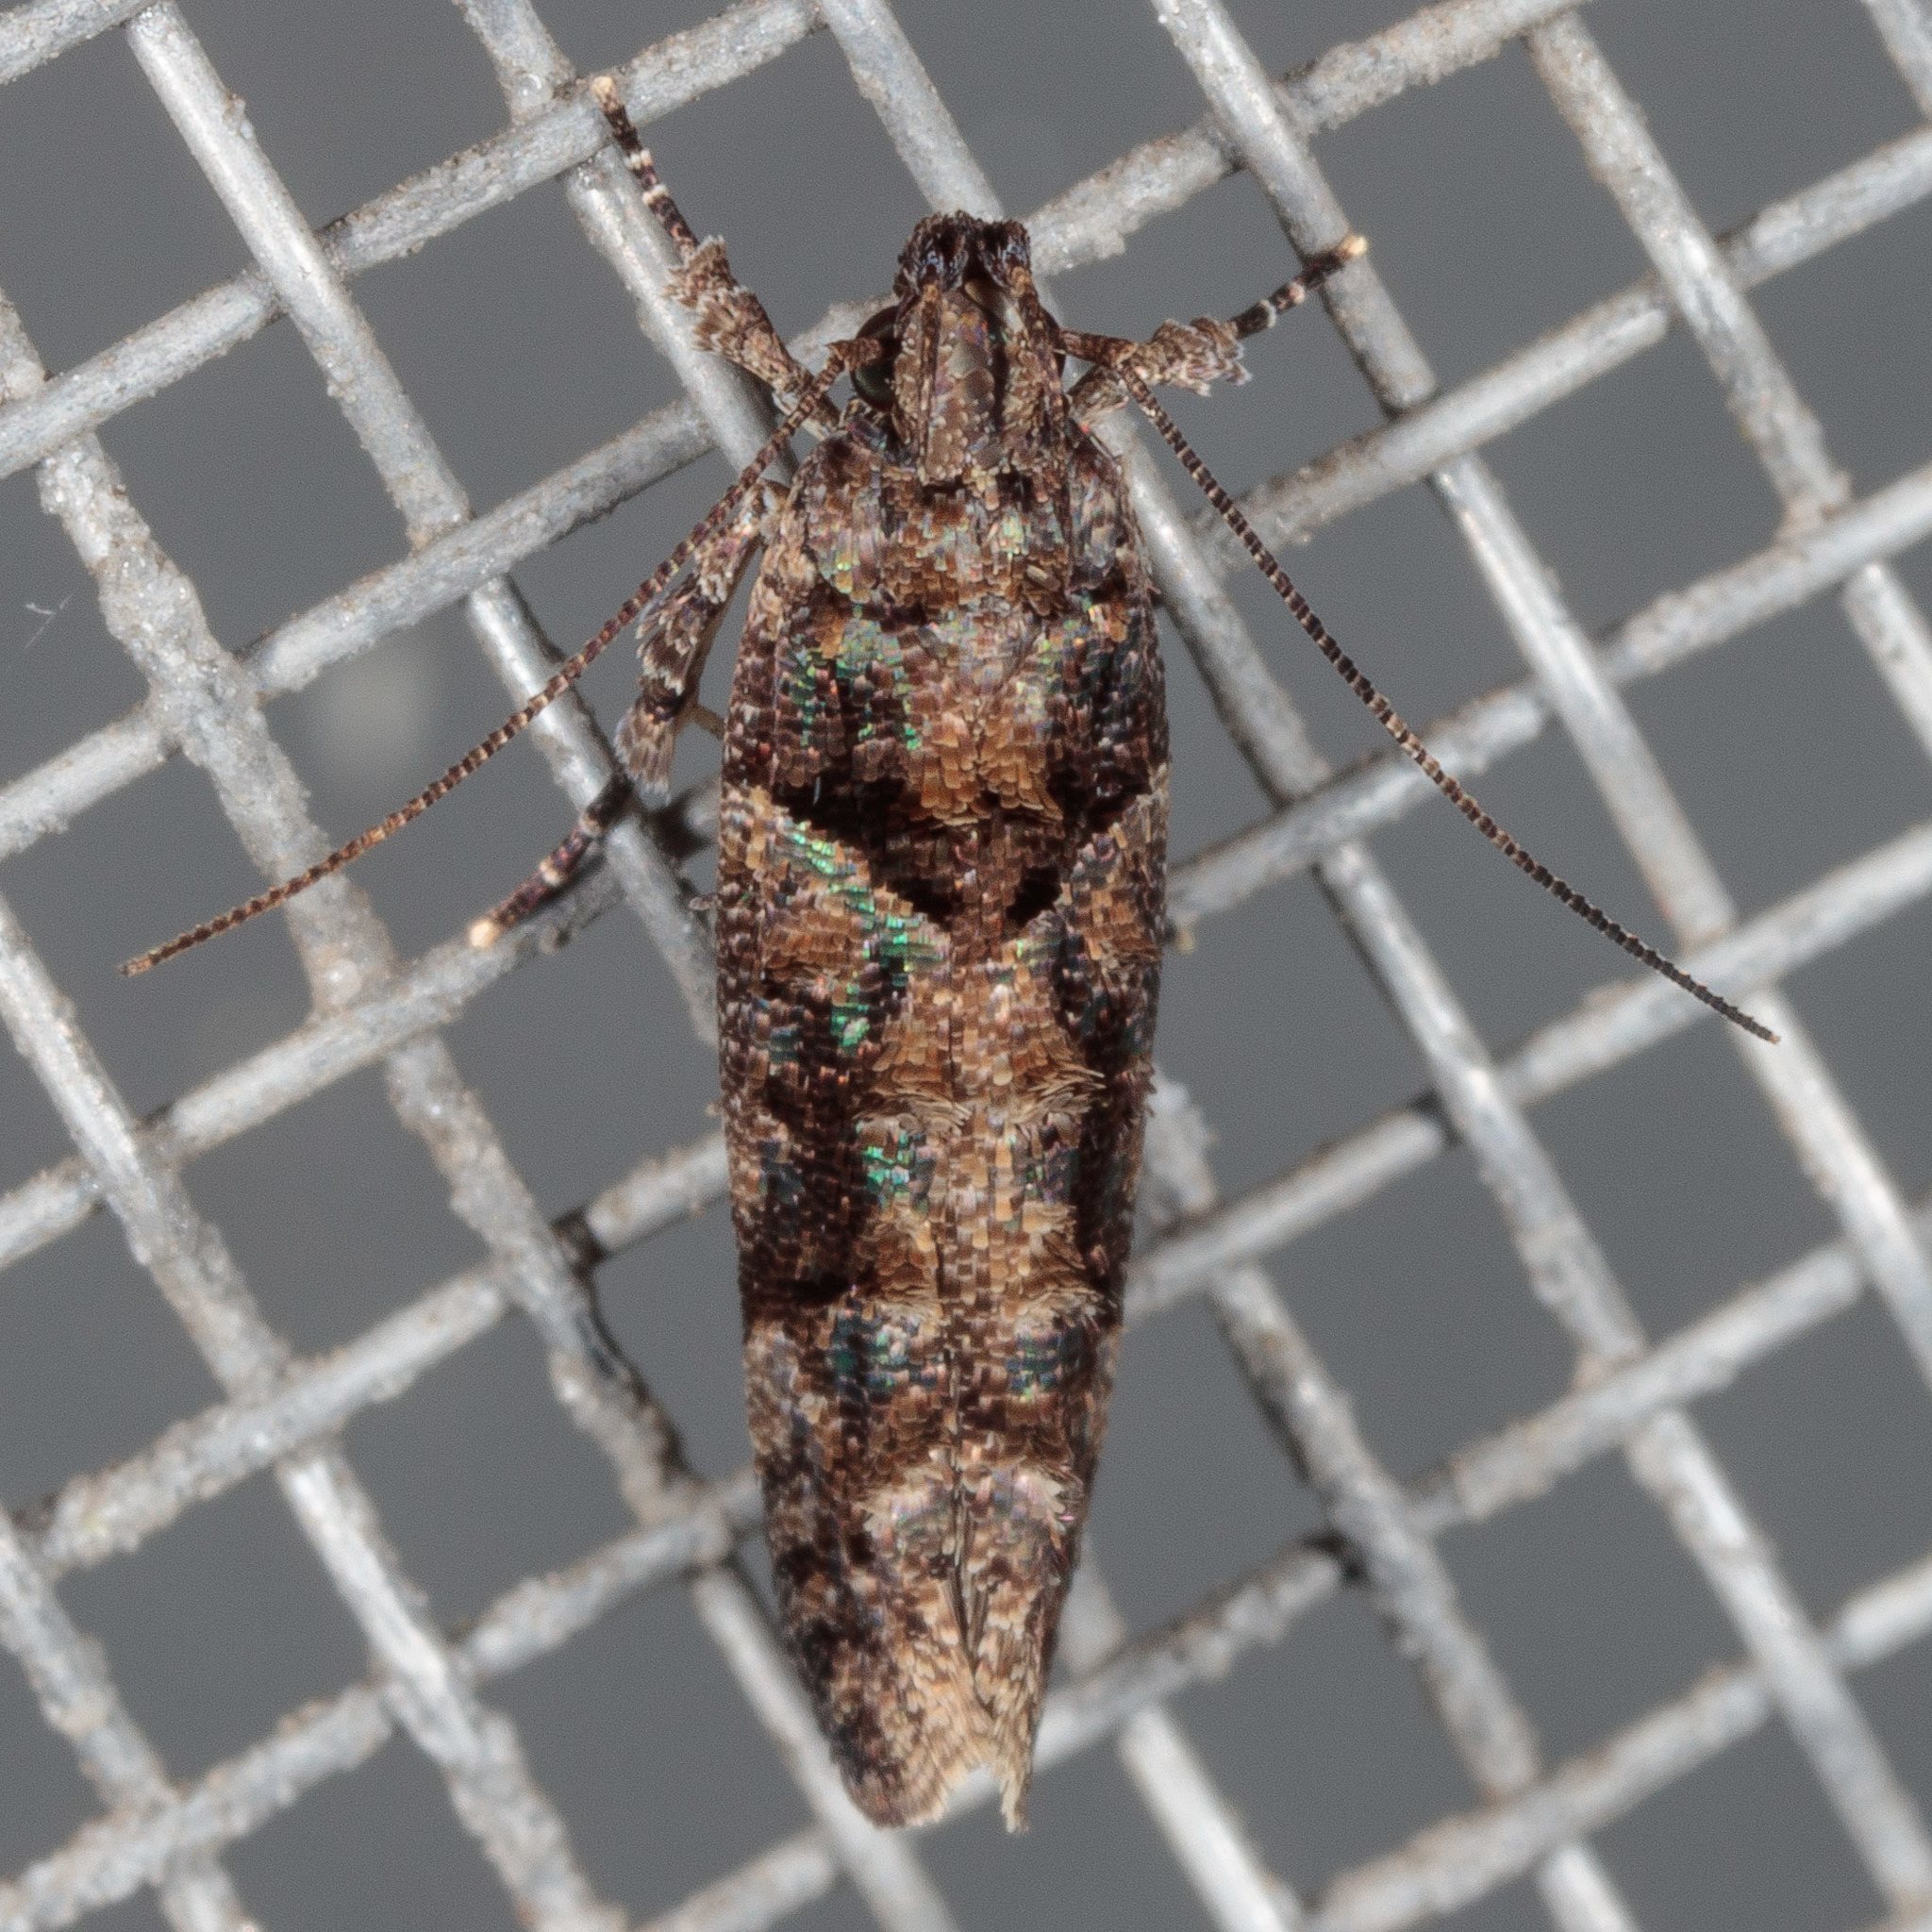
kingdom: Animalia
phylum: Arthropoda
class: Insecta
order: Lepidoptera
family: Gelechiidae
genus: Telphusa
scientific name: Telphusa perspicua
